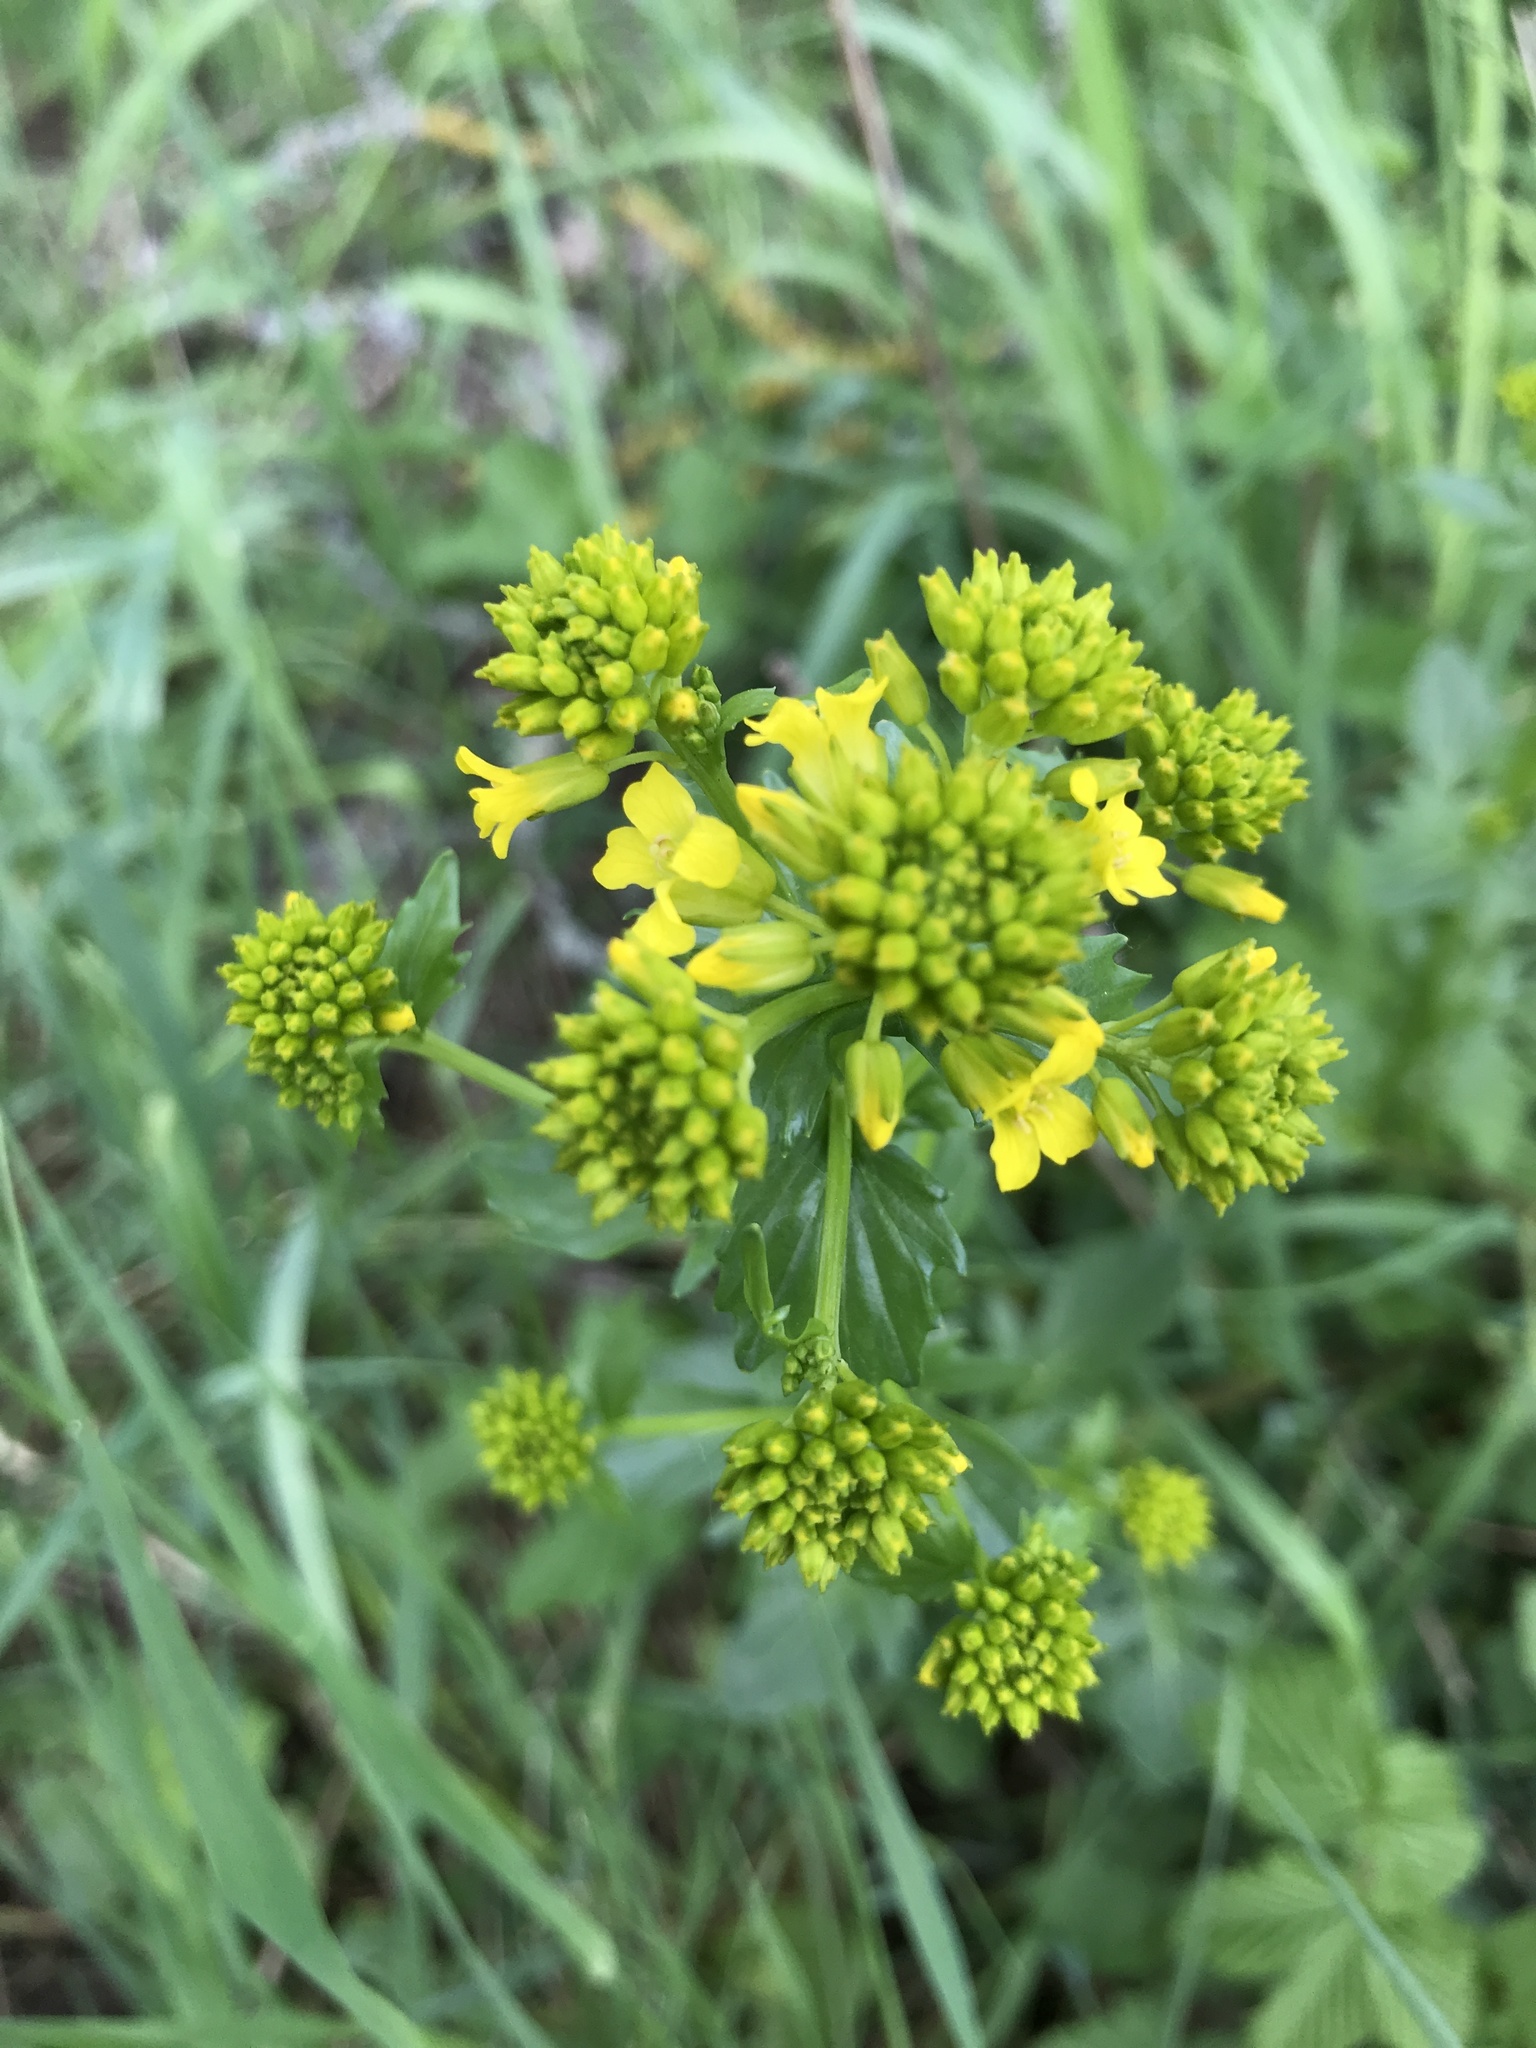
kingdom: Plantae
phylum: Tracheophyta
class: Magnoliopsida
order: Brassicales
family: Brassicaceae
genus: Barbarea
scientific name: Barbarea vulgaris
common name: Cressy-greens
